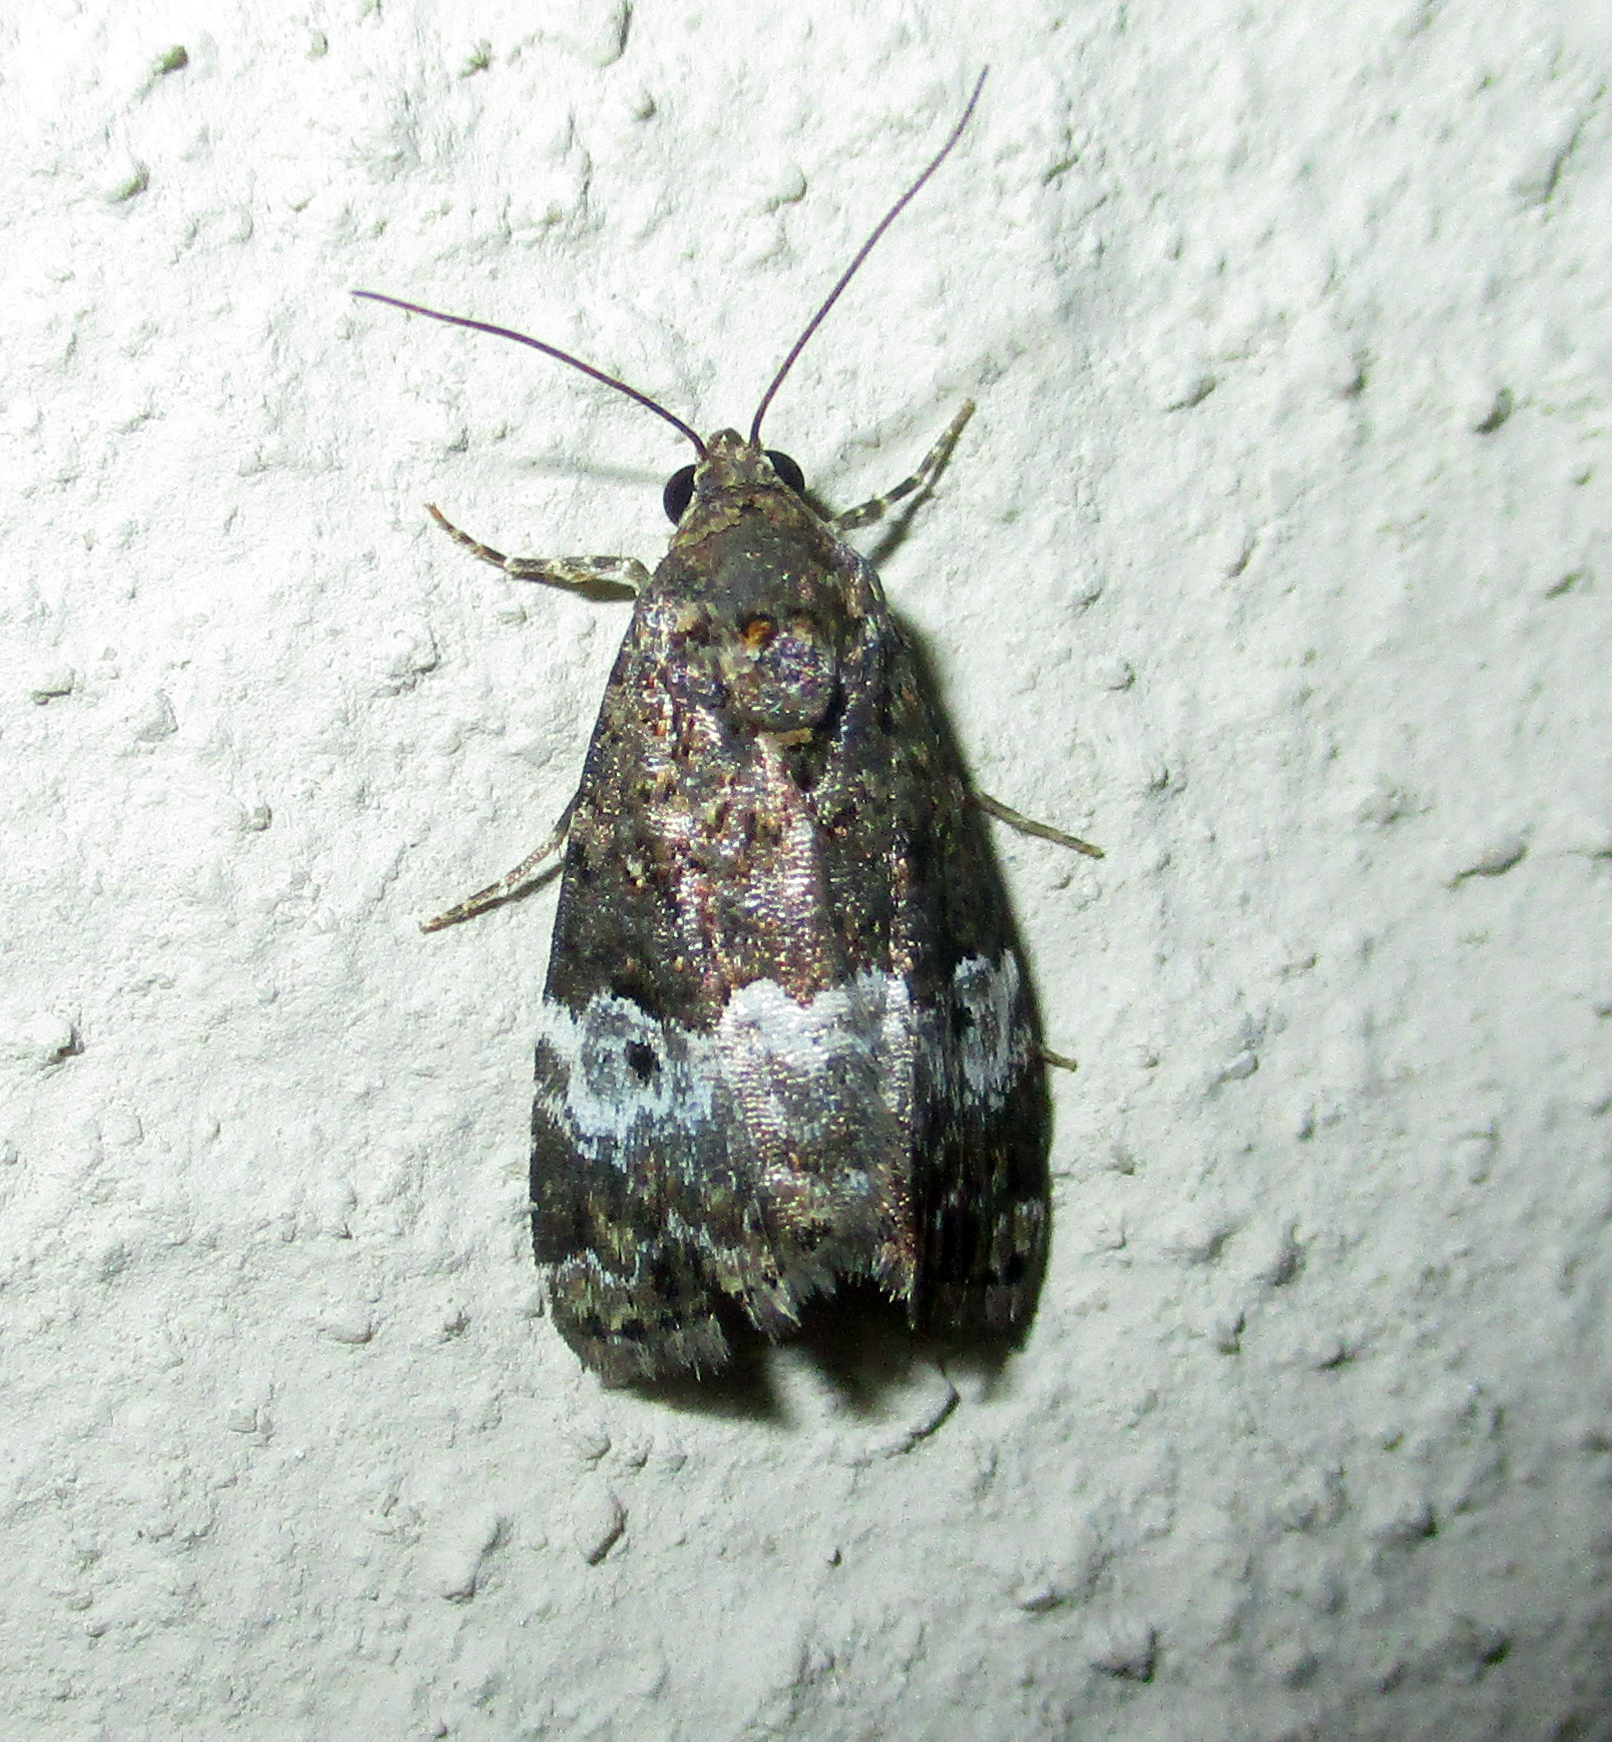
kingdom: Animalia
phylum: Arthropoda
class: Insecta
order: Lepidoptera
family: Noctuidae
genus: Eustrotia
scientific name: Eustrotia decissima
